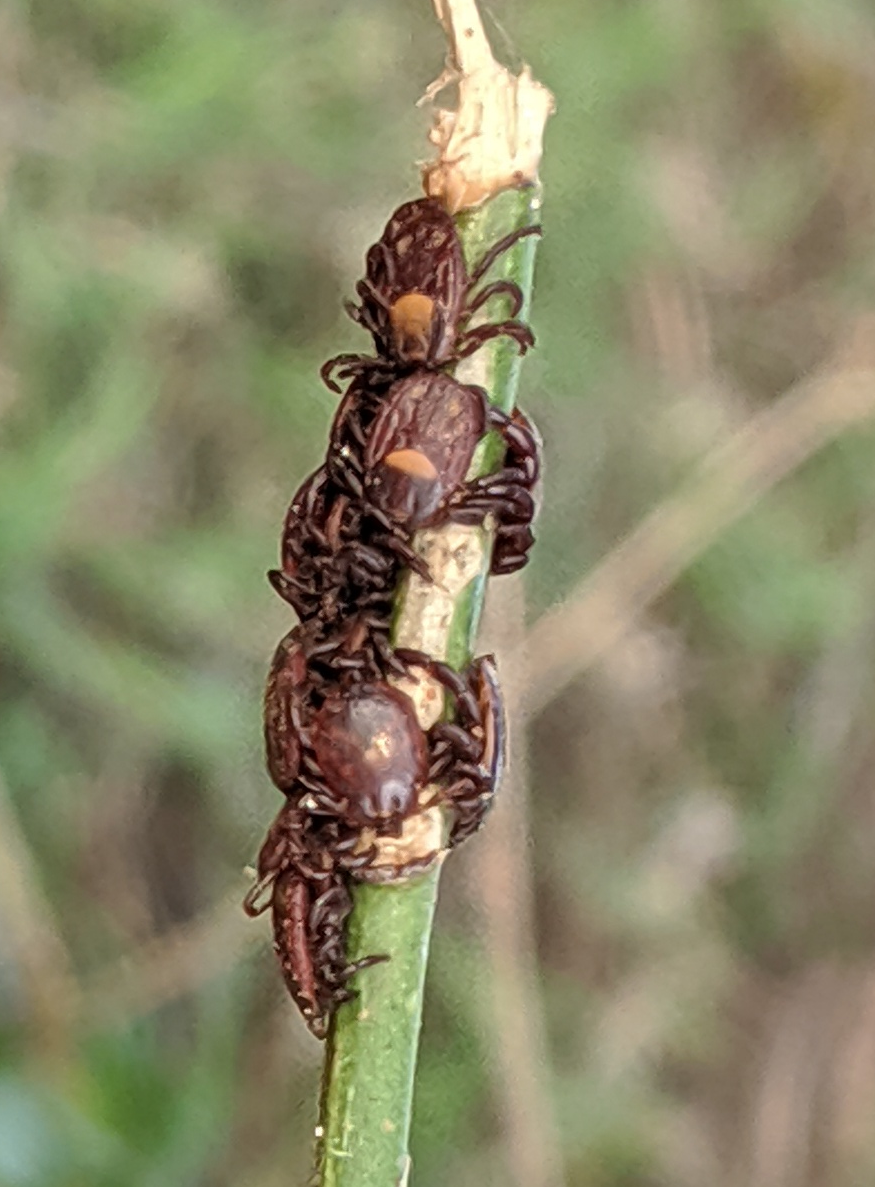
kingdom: Animalia
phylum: Arthropoda
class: Arachnida
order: Ixodida
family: Ixodidae
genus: Rhipicephalus
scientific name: Rhipicephalus maculatus
